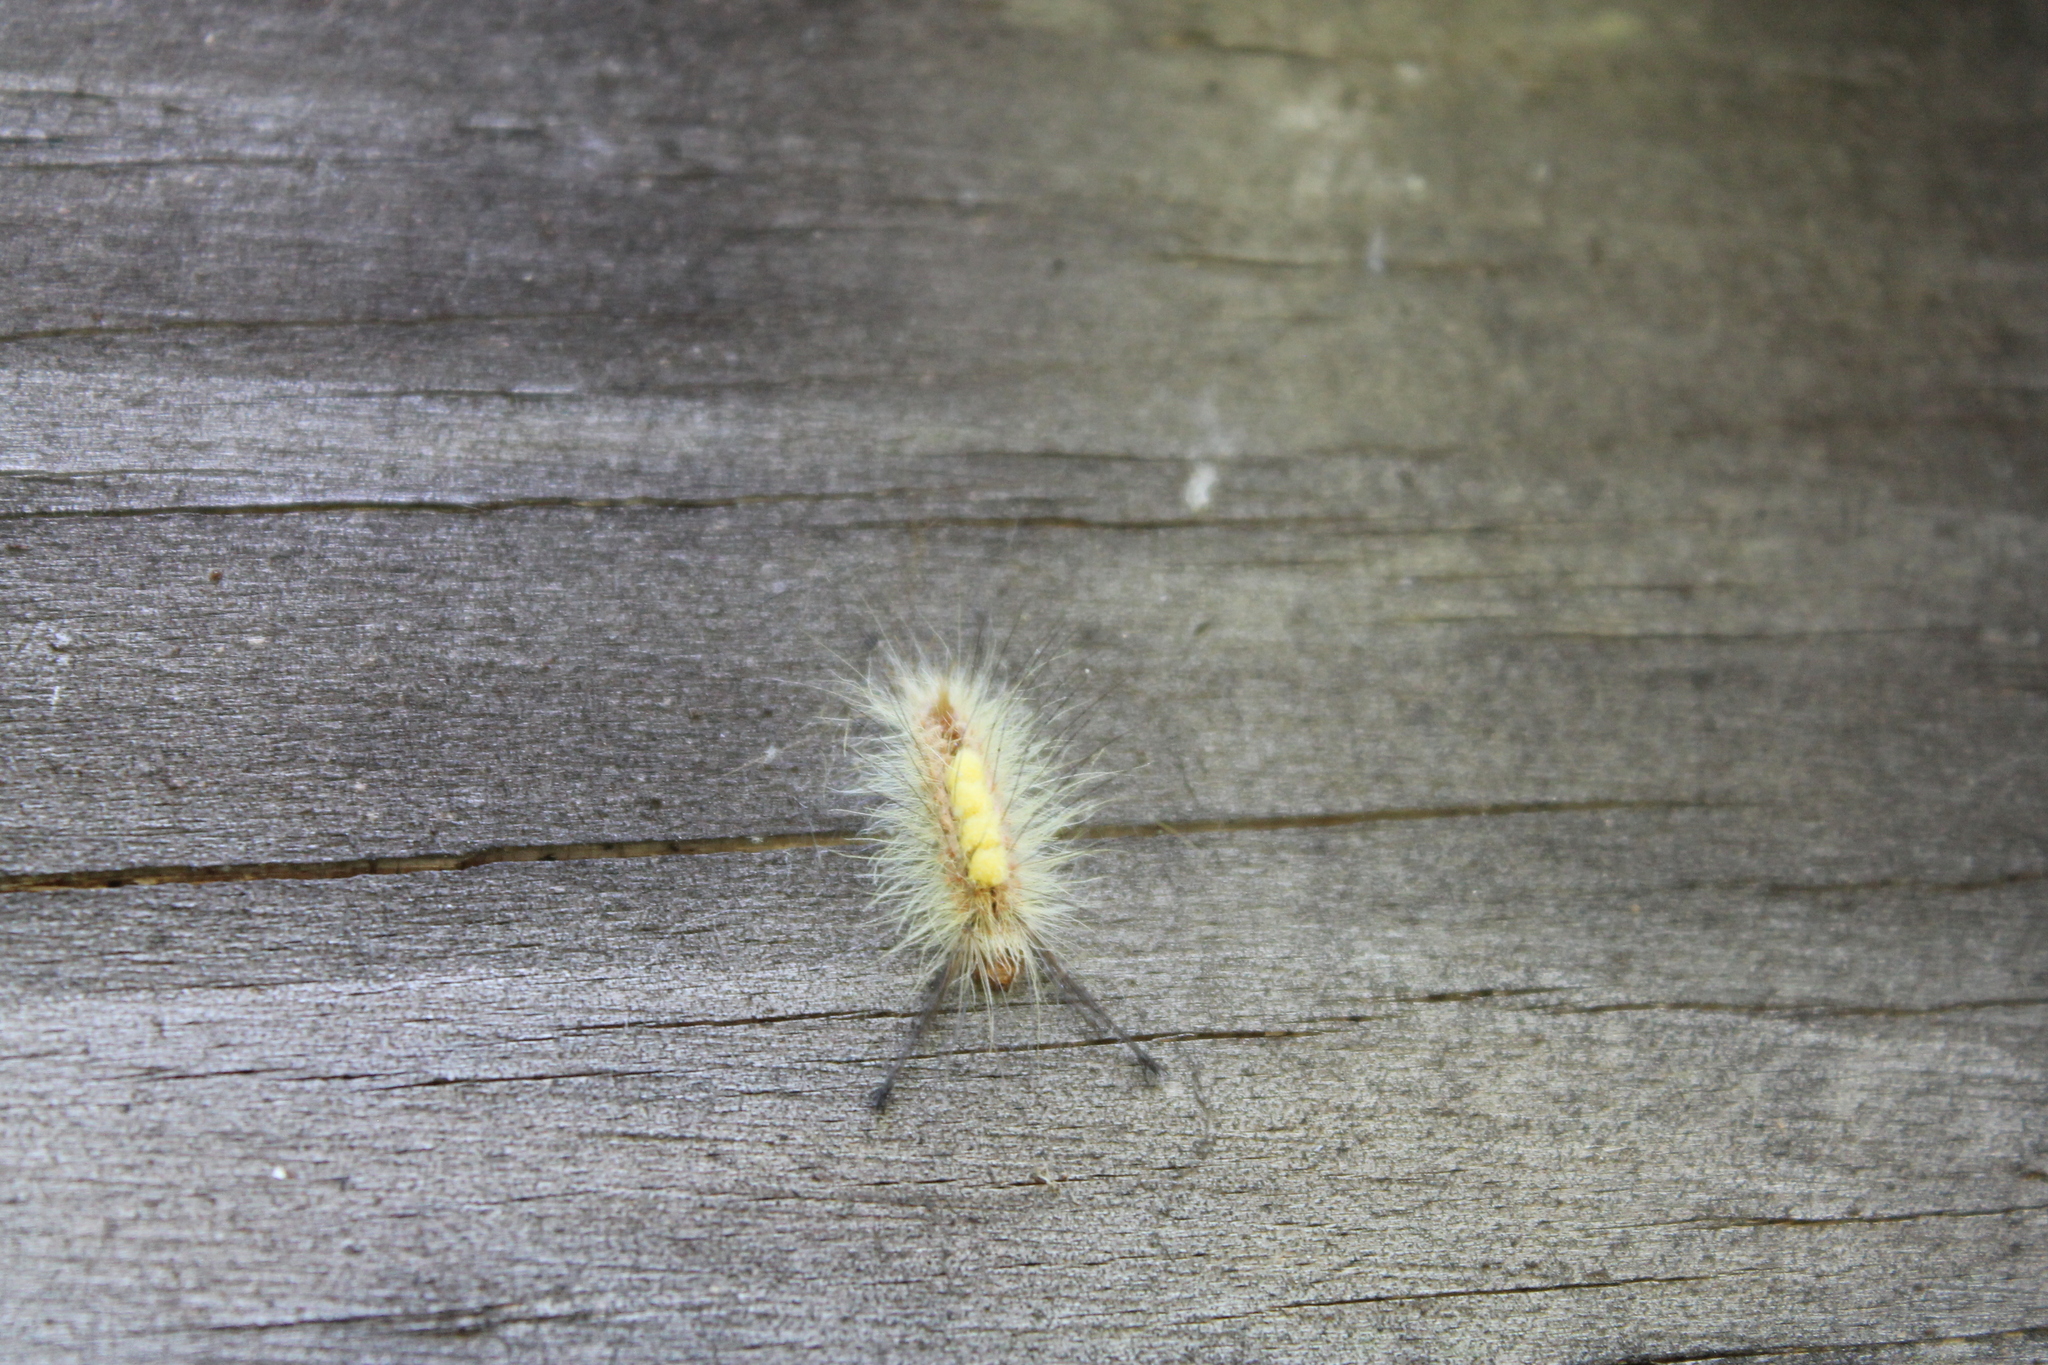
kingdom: Animalia
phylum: Arthropoda
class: Insecta
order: Lepidoptera
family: Erebidae
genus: Orgyia
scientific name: Orgyia leucostigma
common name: White-marked tussock moth
